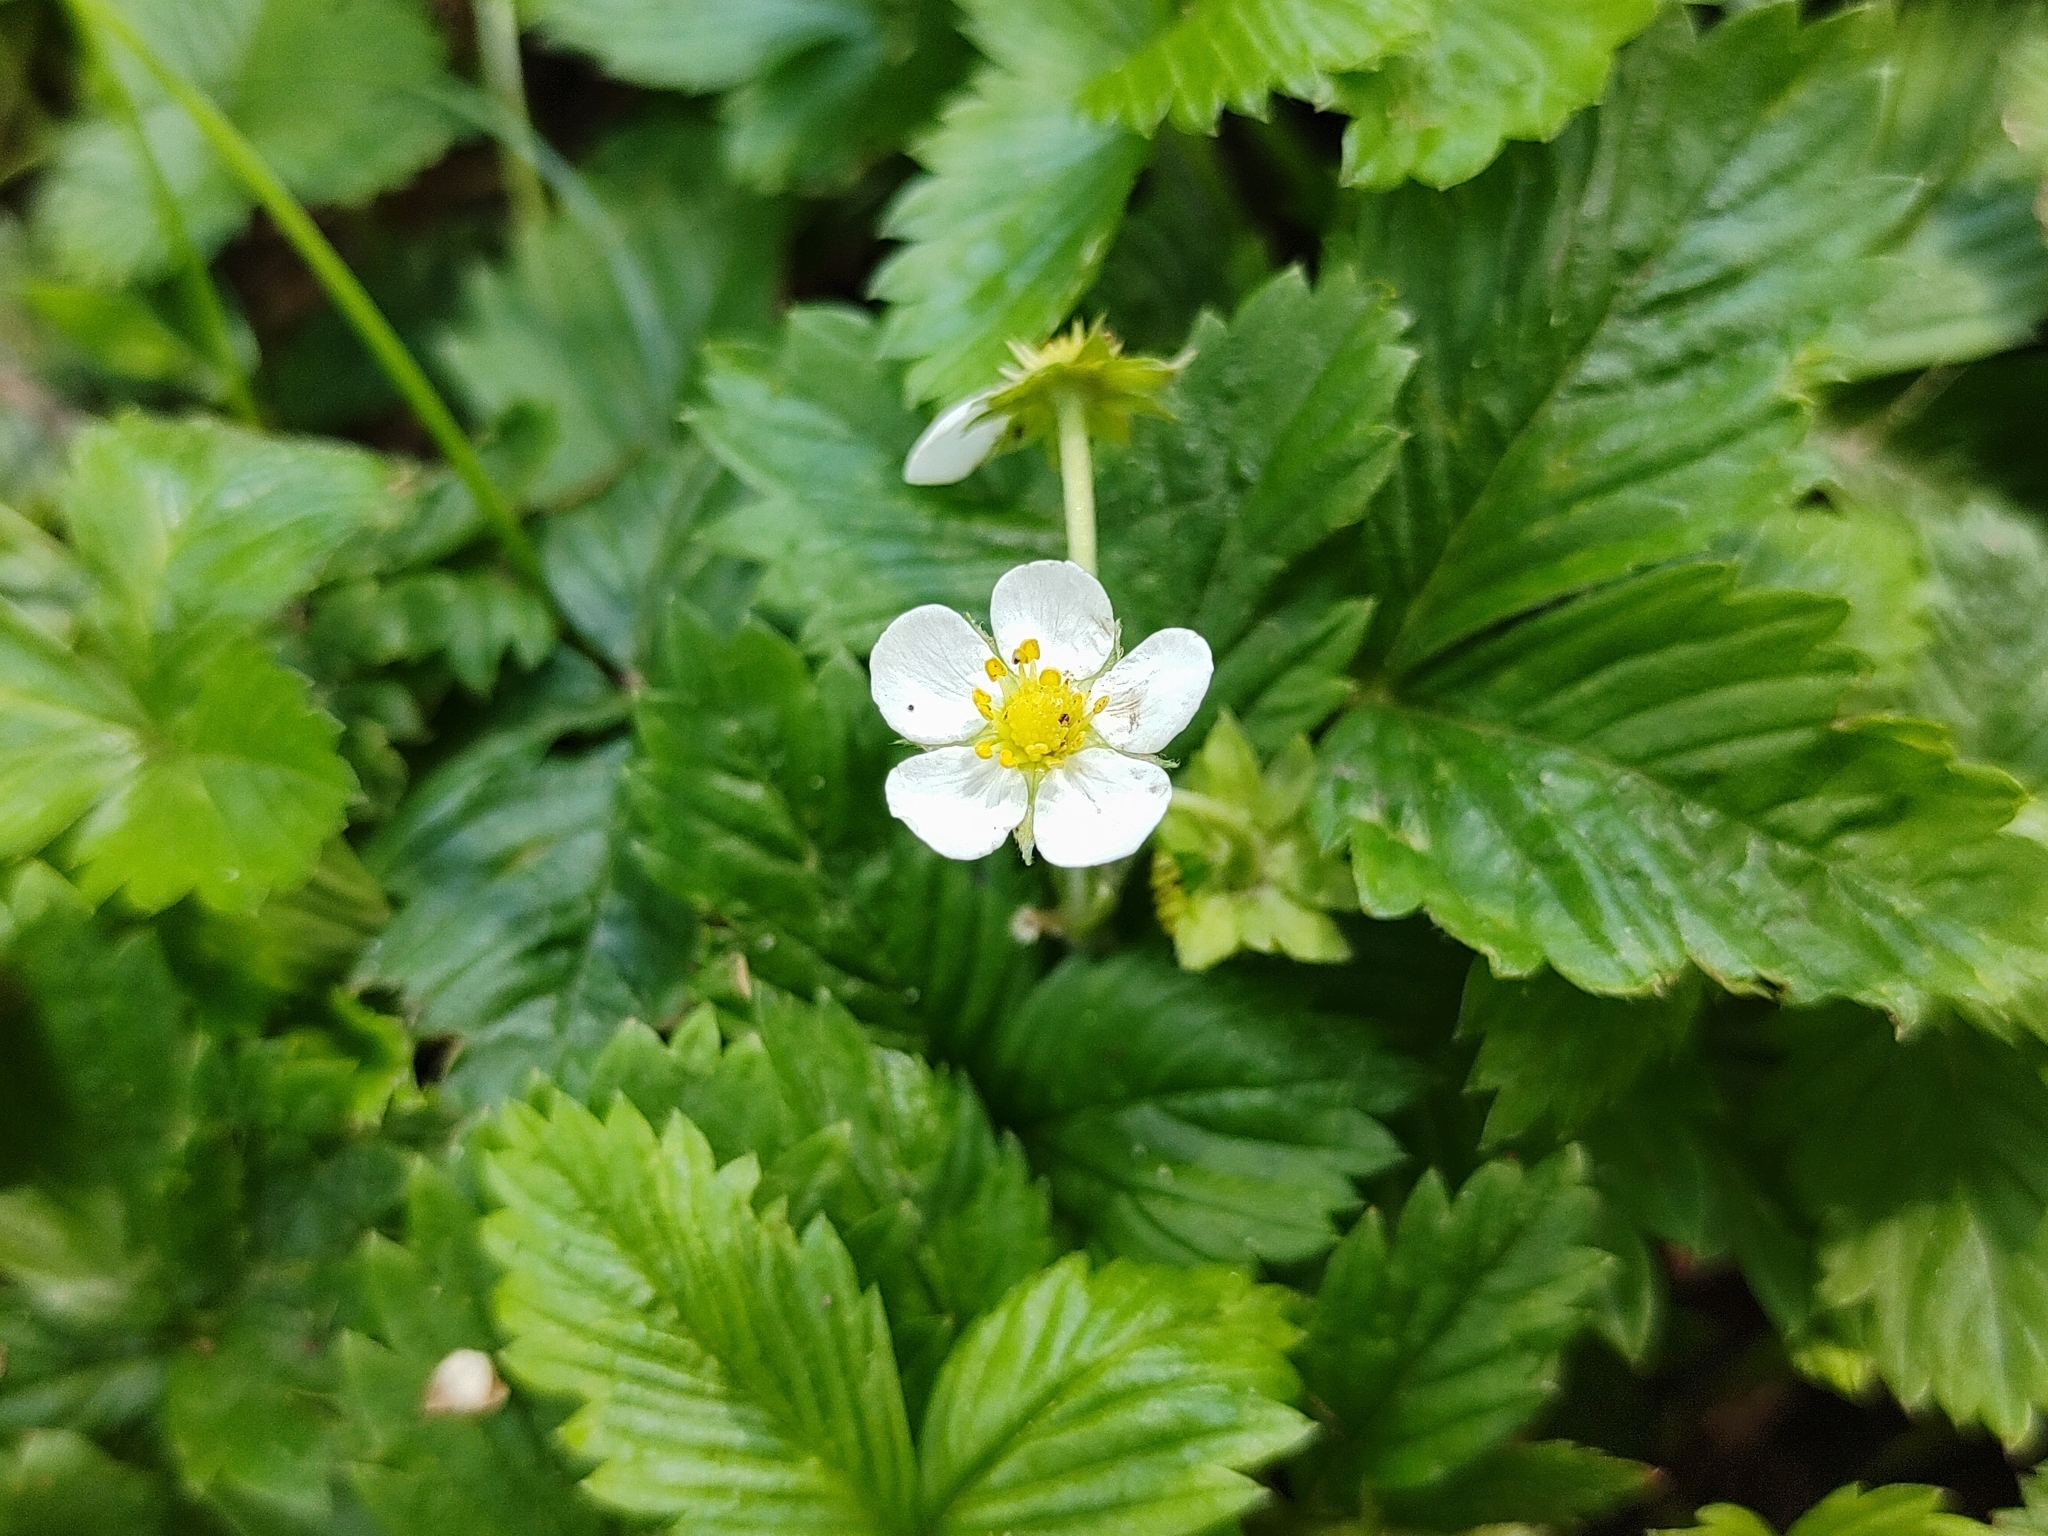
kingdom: Plantae
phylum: Tracheophyta
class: Magnoliopsida
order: Rosales
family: Rosaceae
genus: Fragaria
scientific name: Fragaria vesca
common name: Wild strawberry
